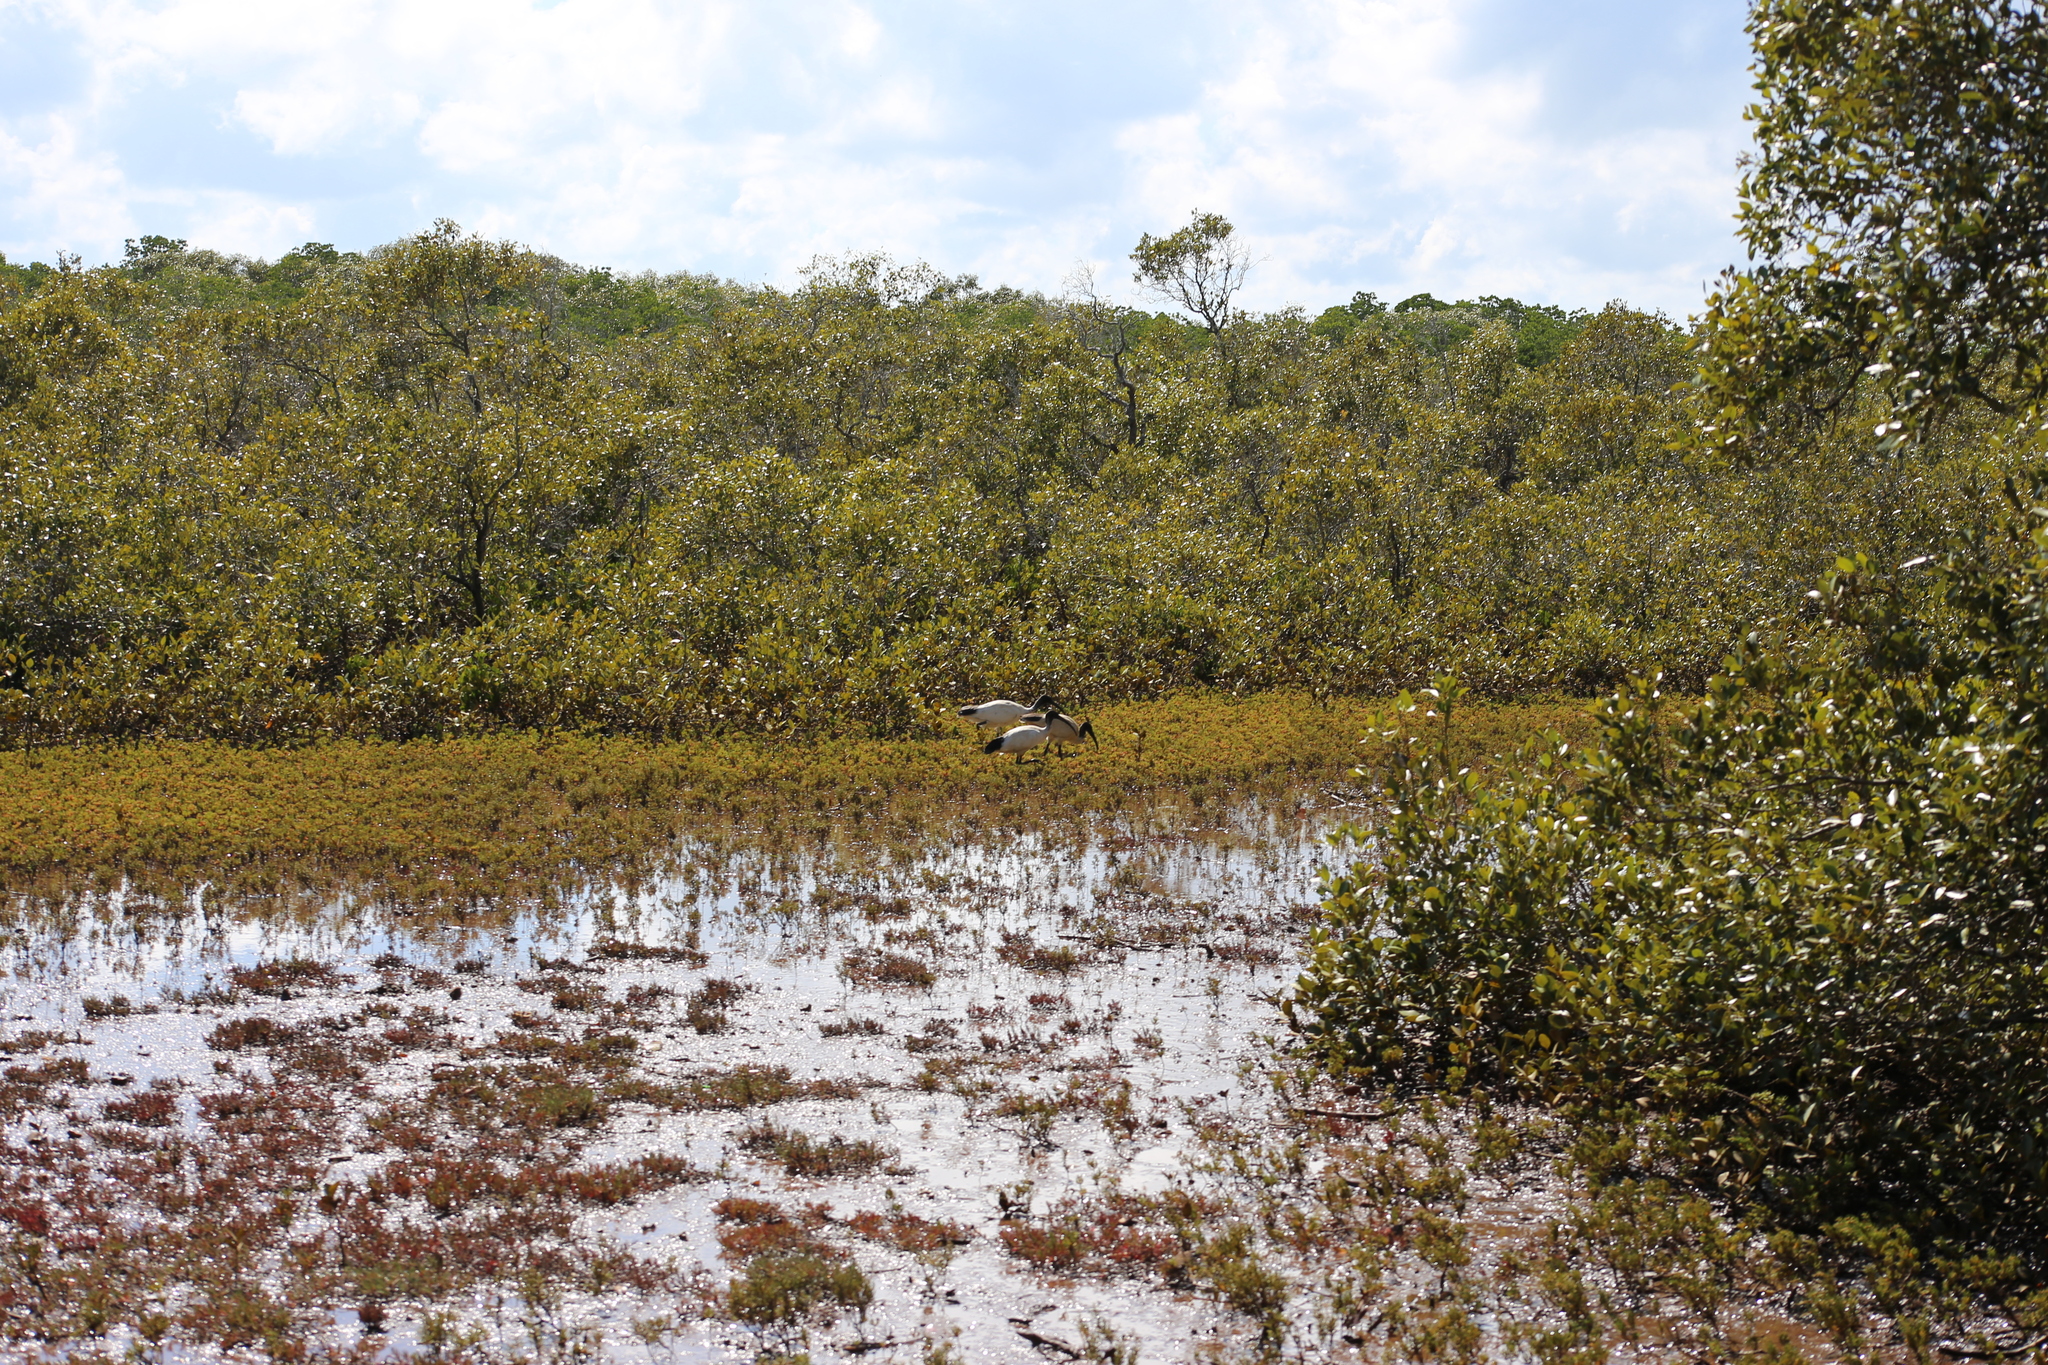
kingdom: Animalia
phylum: Chordata
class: Aves
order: Pelecaniformes
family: Threskiornithidae
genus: Threskiornis
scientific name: Threskiornis molucca
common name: Australian white ibis
